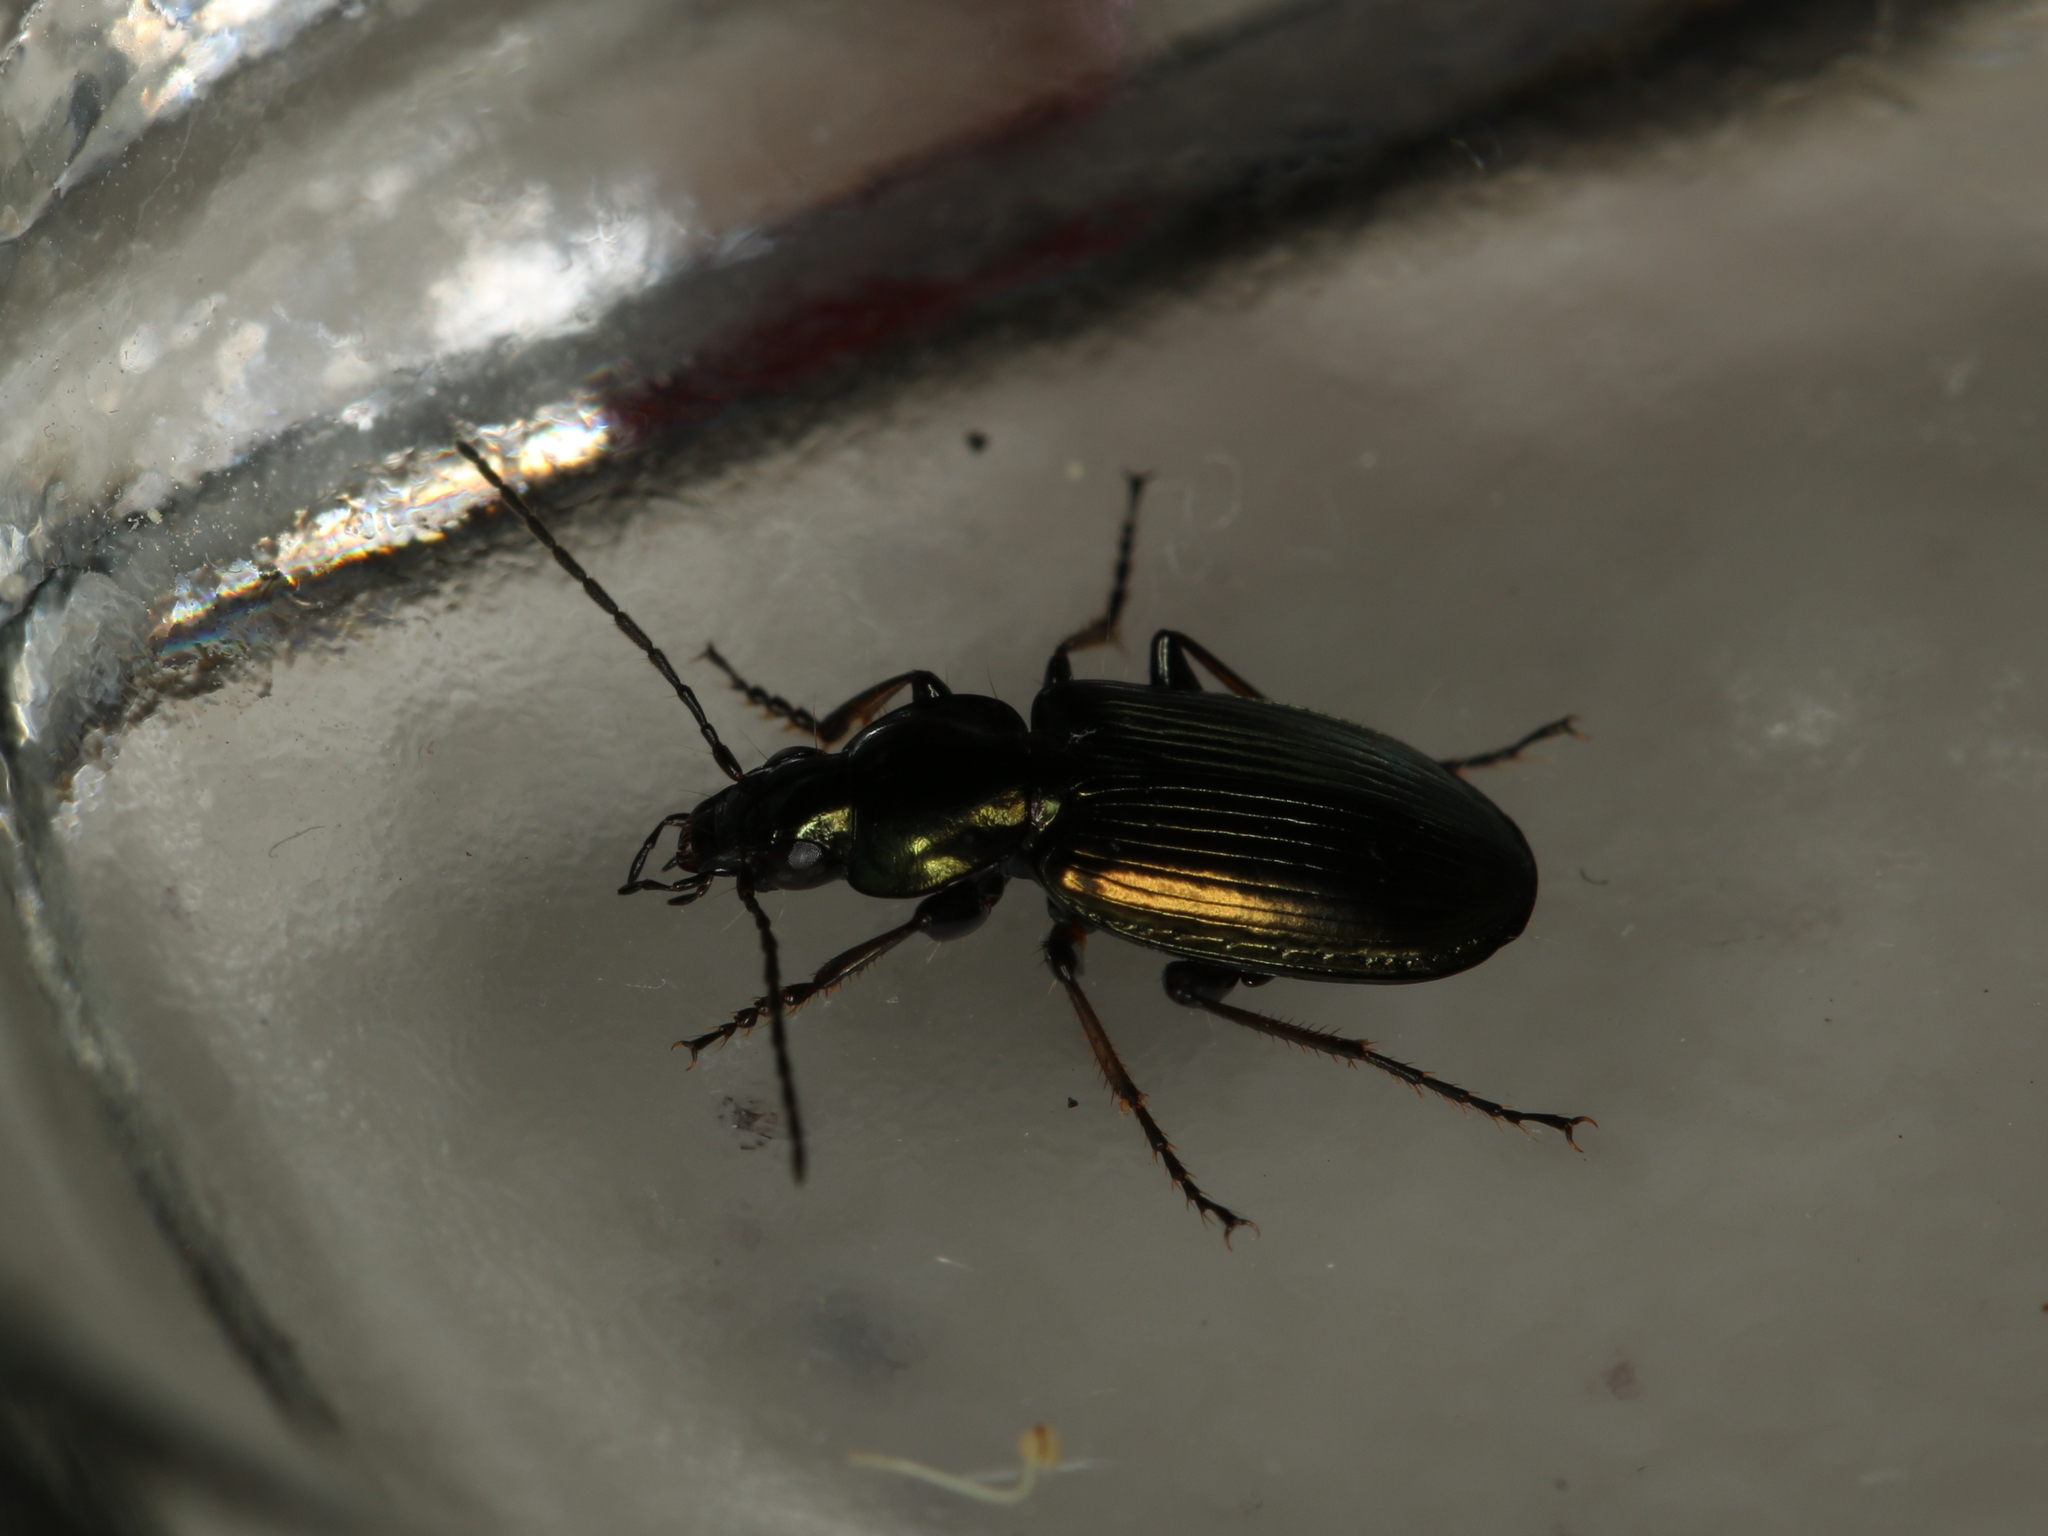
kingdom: Animalia
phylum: Arthropoda
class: Insecta
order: Coleoptera
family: Carabidae
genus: Agonum
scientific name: Agonum muelleri
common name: Müller's harp ground beetle
